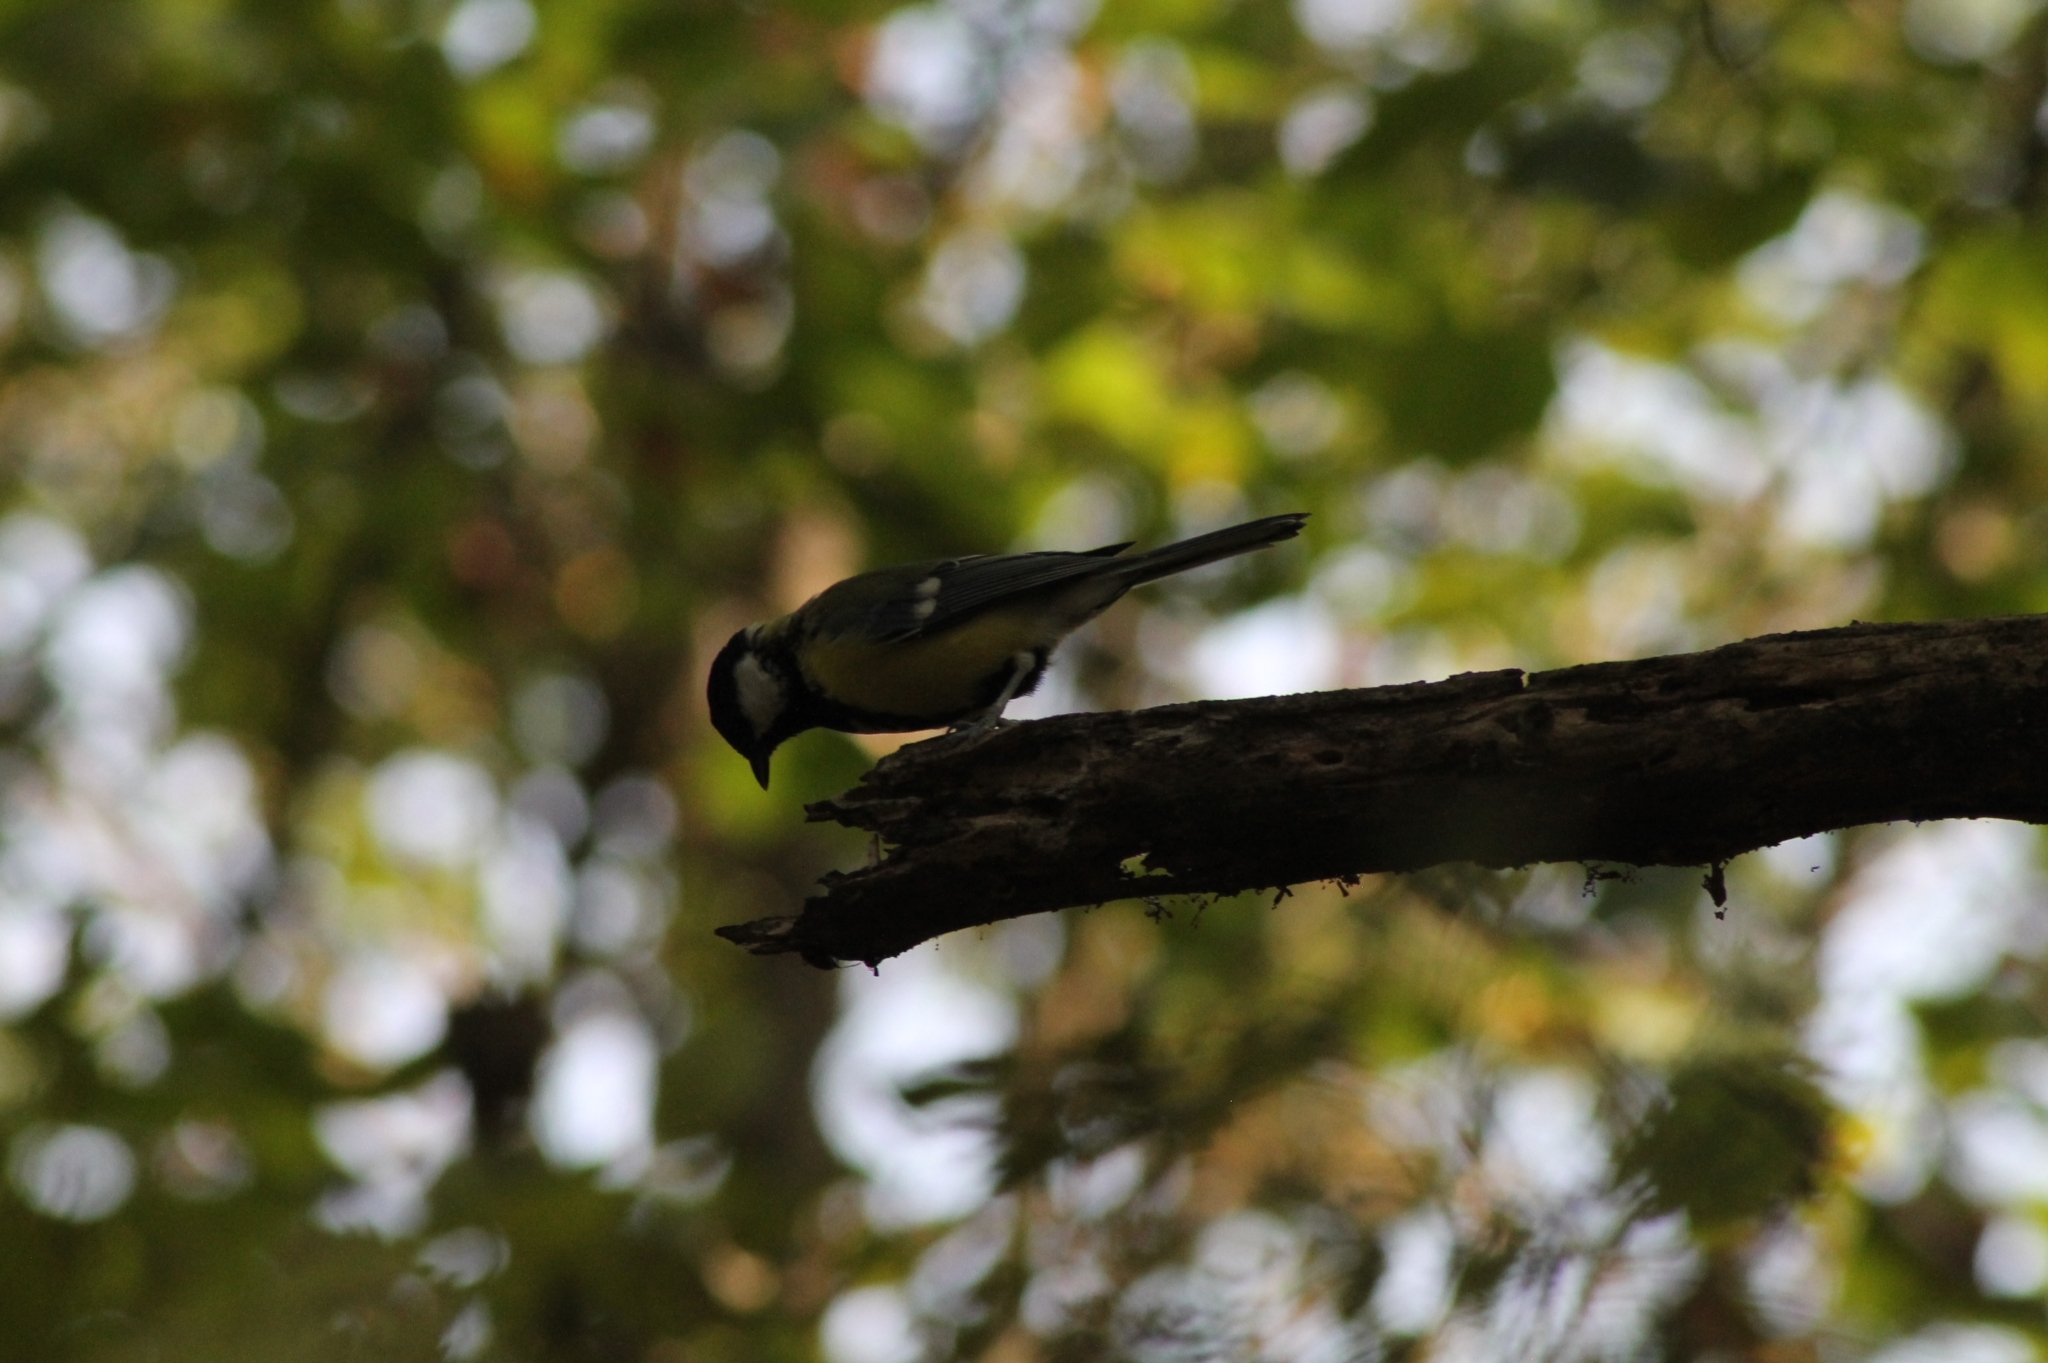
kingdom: Animalia
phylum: Chordata
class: Aves
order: Passeriformes
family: Paridae
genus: Parus
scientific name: Parus major
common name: Great tit
